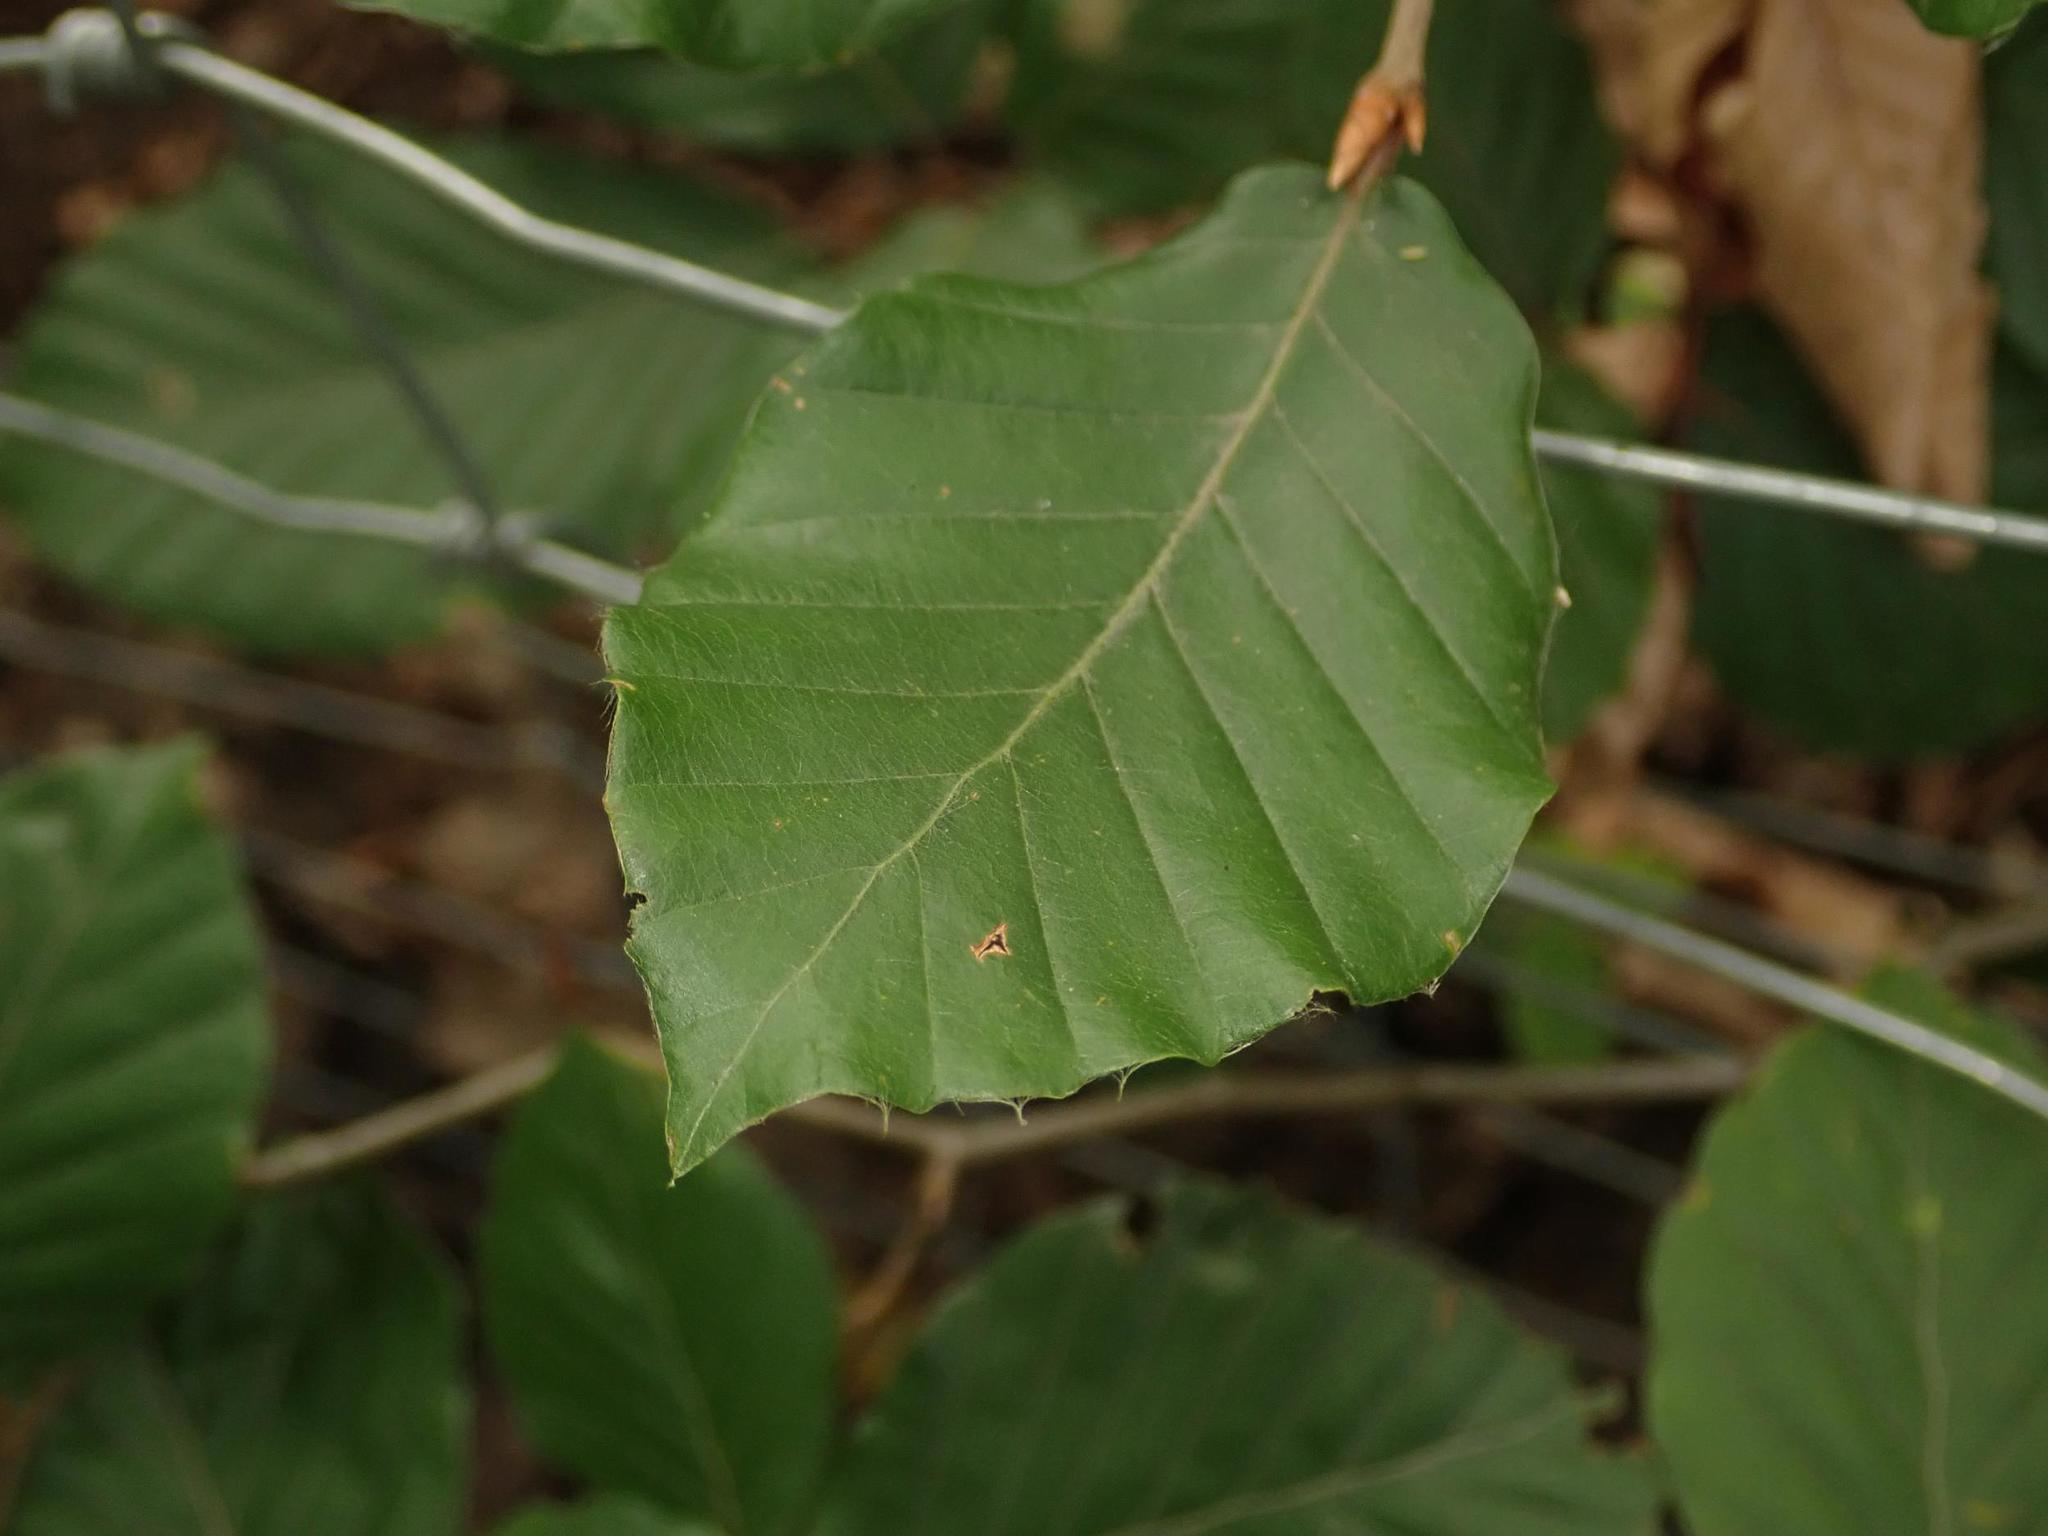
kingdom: Plantae
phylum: Tracheophyta
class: Magnoliopsida
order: Fagales
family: Fagaceae
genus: Fagus
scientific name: Fagus sylvatica
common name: Beech
